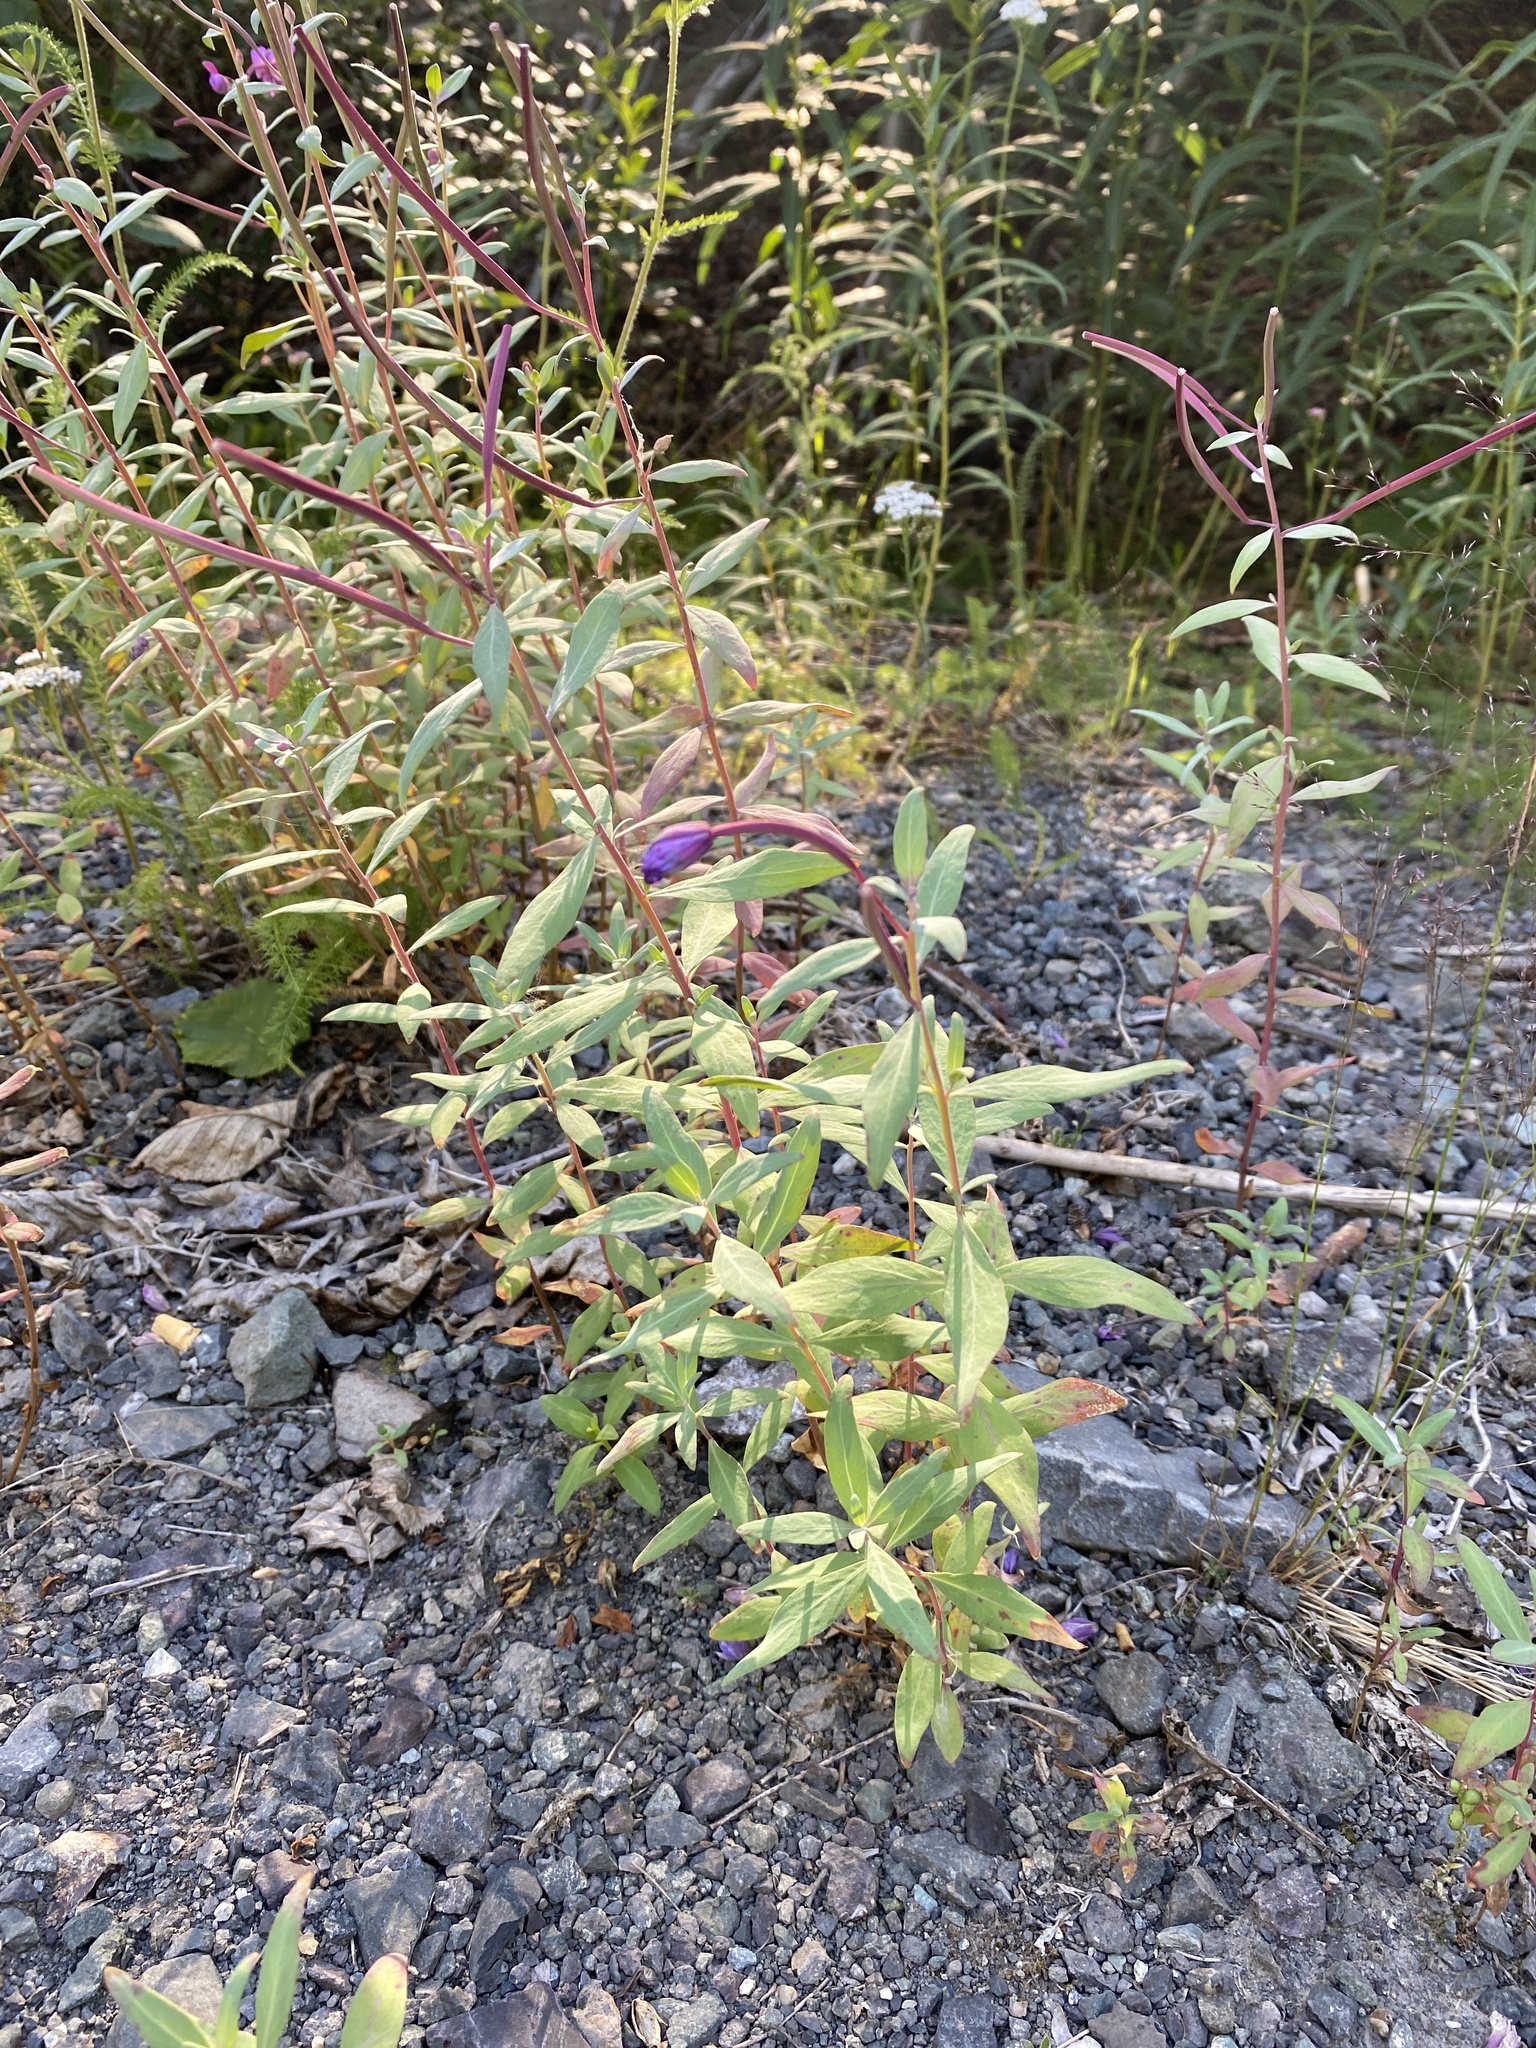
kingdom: Plantae
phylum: Tracheophyta
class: Magnoliopsida
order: Myrtales
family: Onagraceae
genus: Chamaenerion
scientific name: Chamaenerion latifolium
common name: Dwarf fireweed
